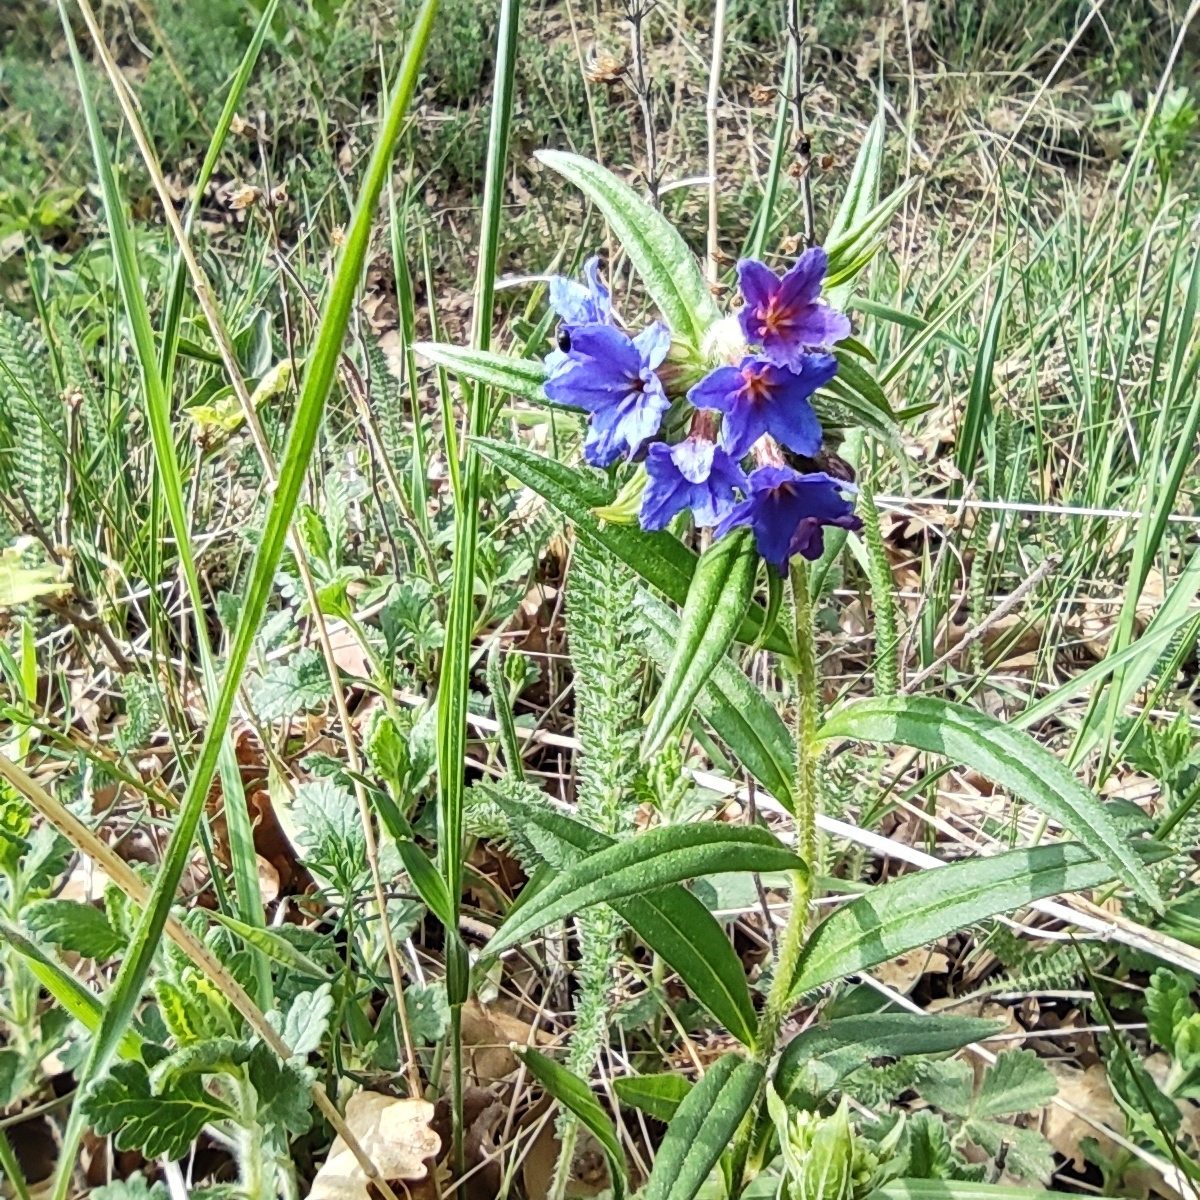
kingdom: Plantae
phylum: Tracheophyta
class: Magnoliopsida
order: Boraginales
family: Boraginaceae
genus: Aegonychon
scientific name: Aegonychon purpurocaeruleum
